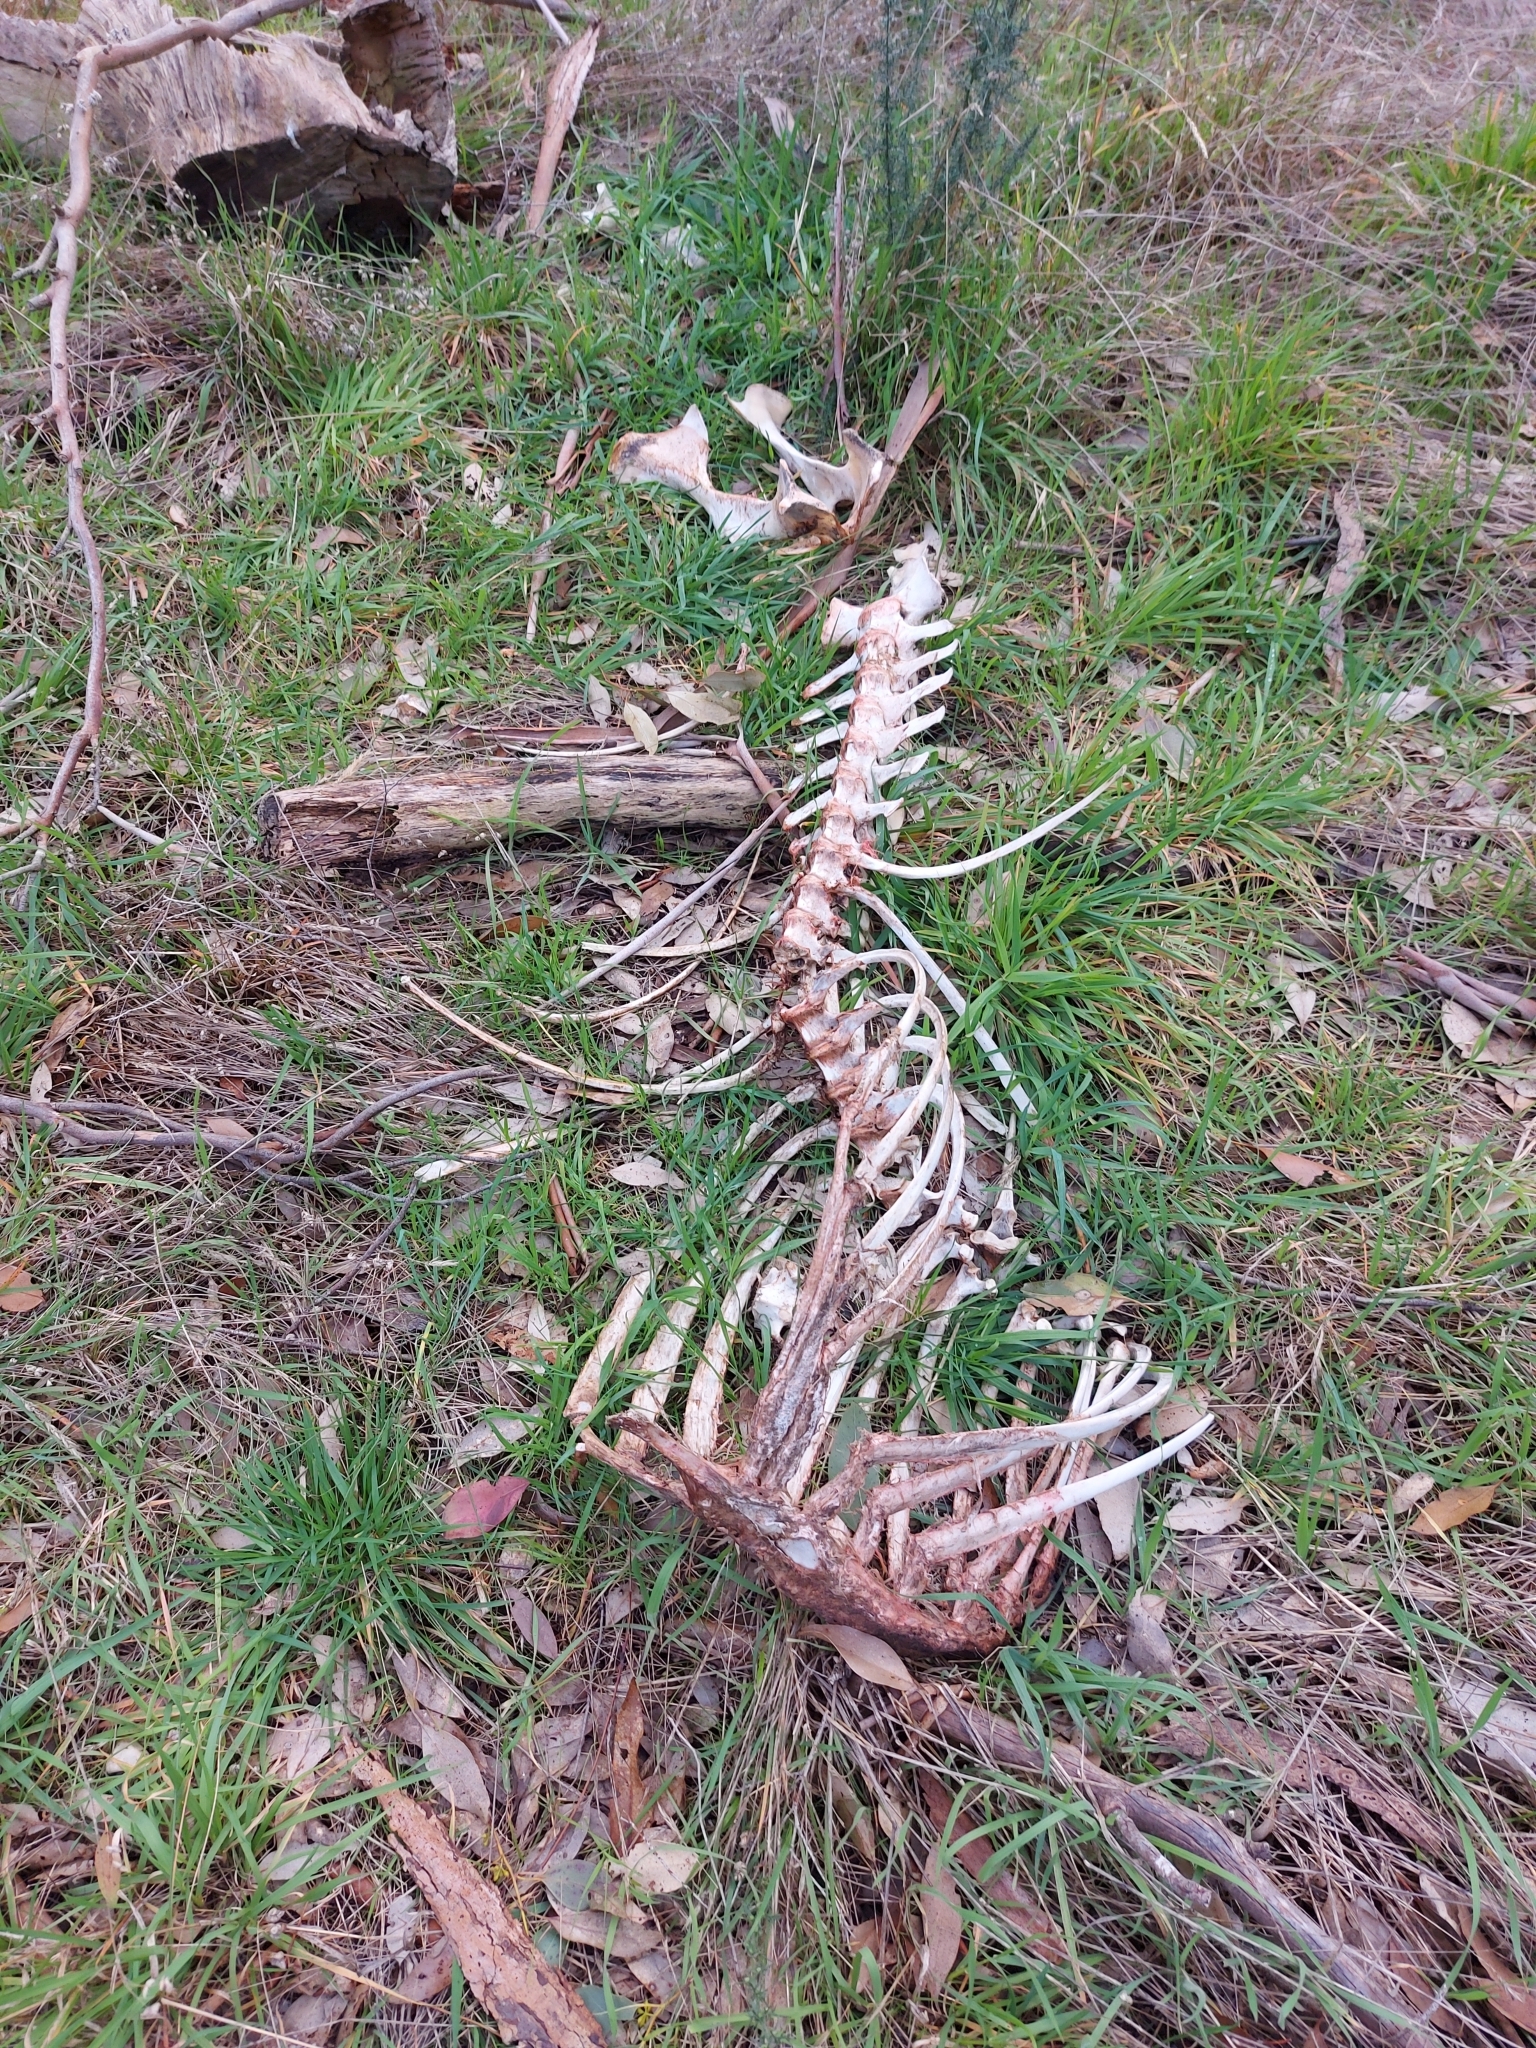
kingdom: Animalia
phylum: Chordata
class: Mammalia
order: Diprotodontia
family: Macropodidae
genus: Macropus
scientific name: Macropus giganteus
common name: Eastern grey kangaroo
